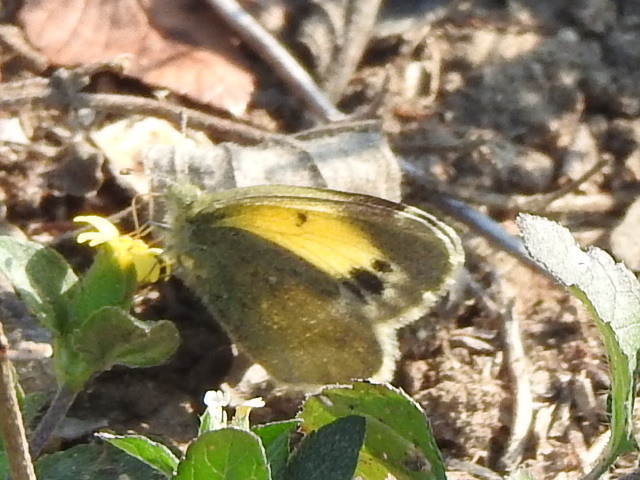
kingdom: Animalia
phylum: Arthropoda
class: Insecta
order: Lepidoptera
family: Pieridae
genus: Nathalis
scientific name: Nathalis iole
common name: Dainty sulphur
